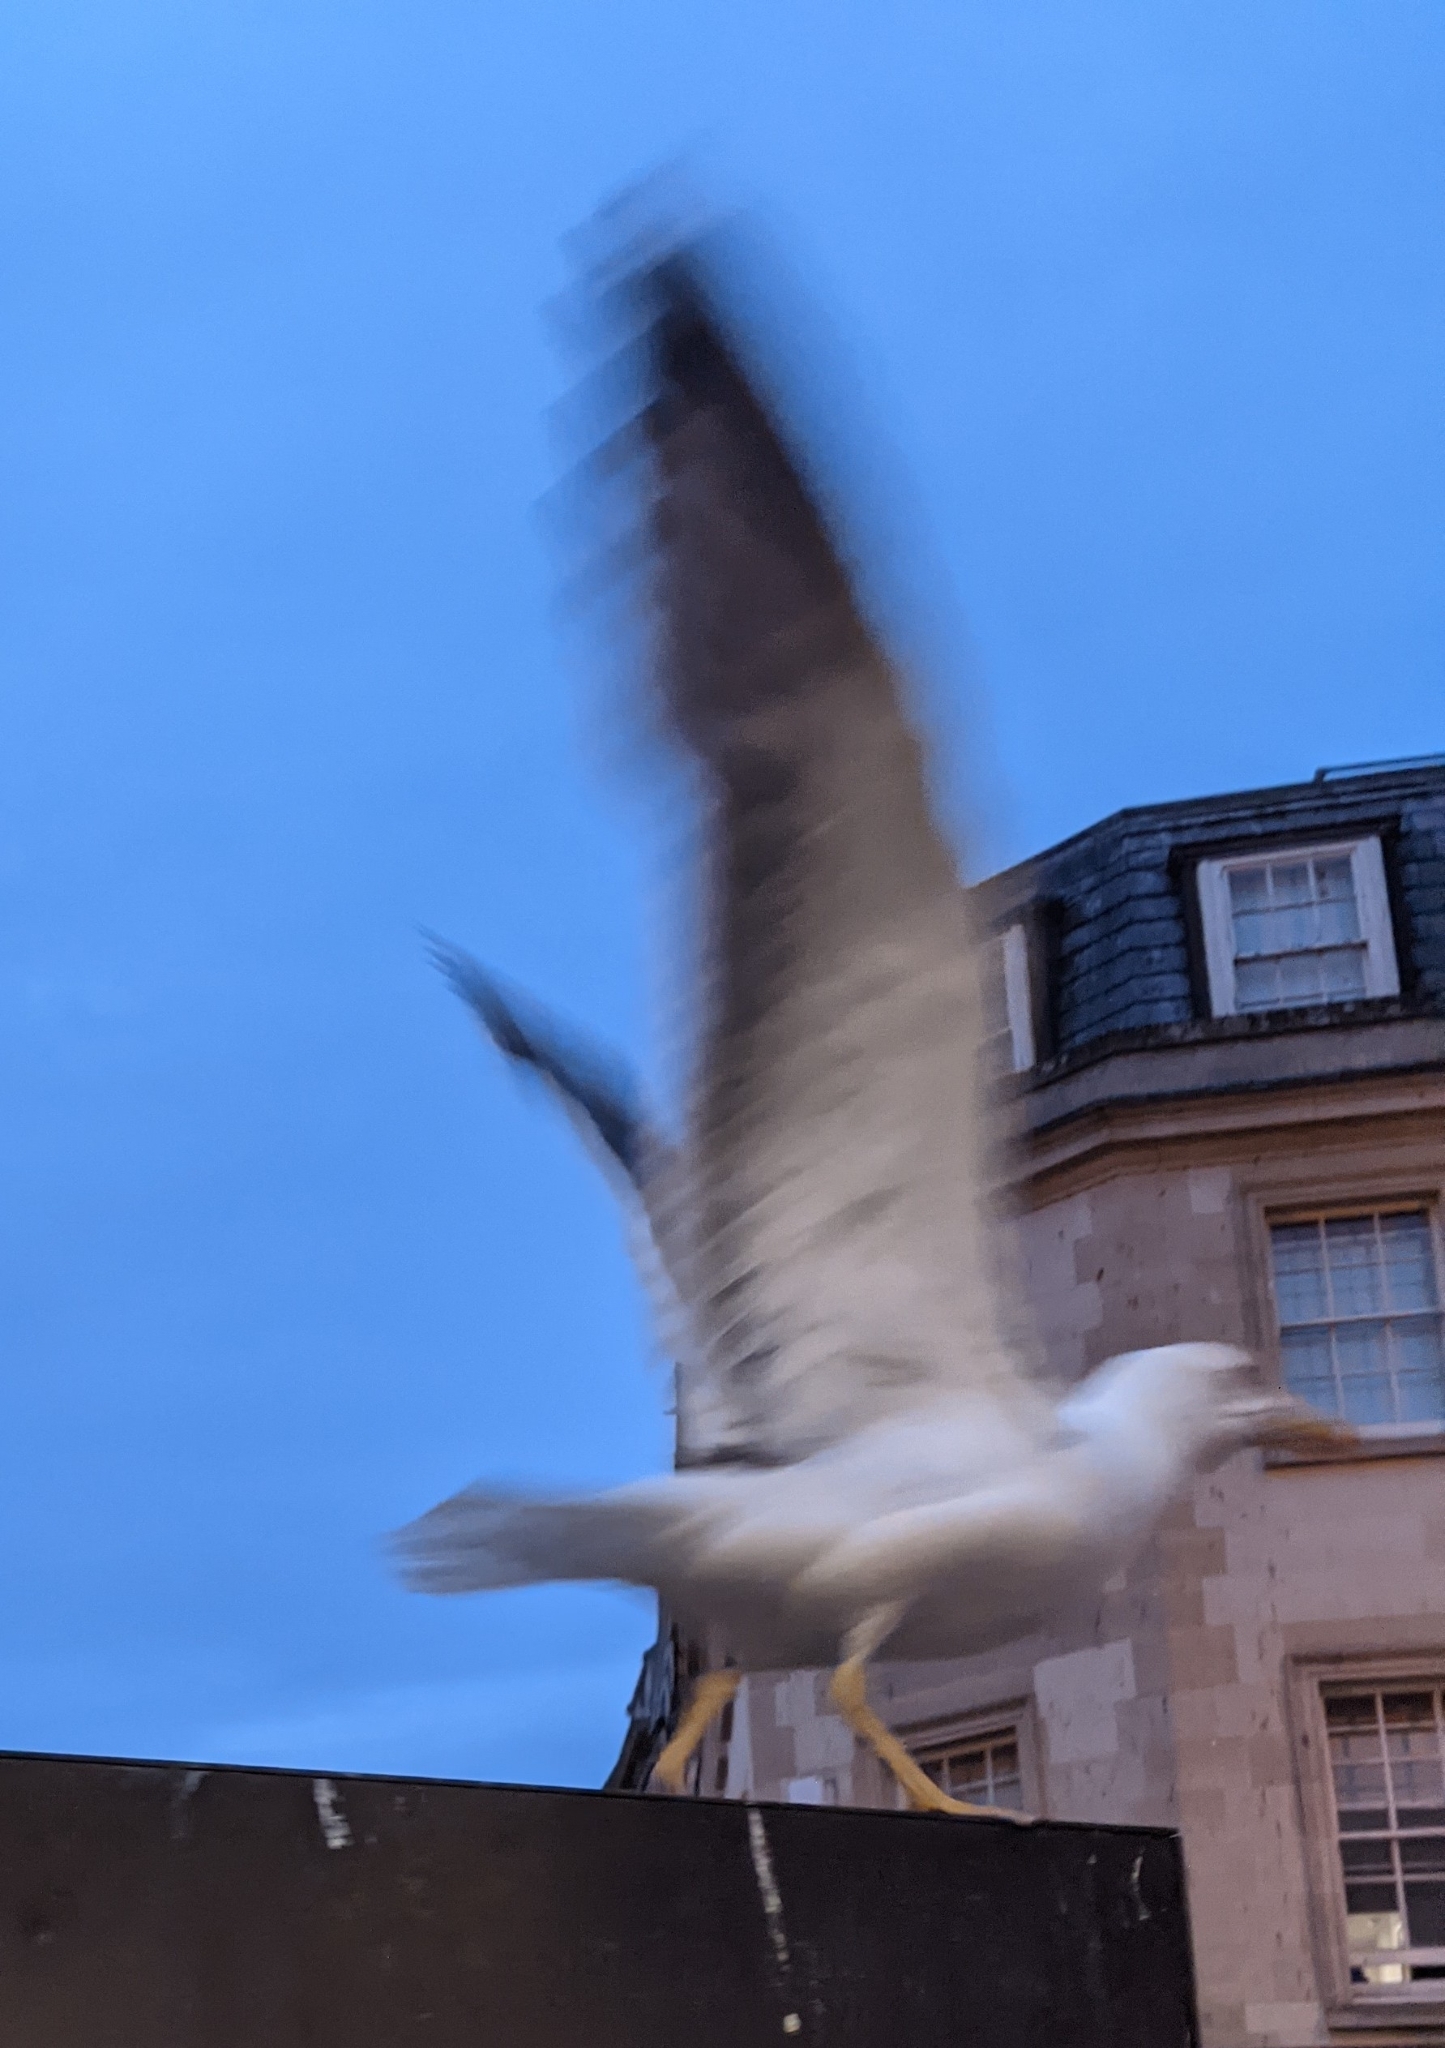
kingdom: Animalia
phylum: Chordata
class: Aves
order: Charadriiformes
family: Laridae
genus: Larus
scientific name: Larus fuscus
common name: Lesser black-backed gull
